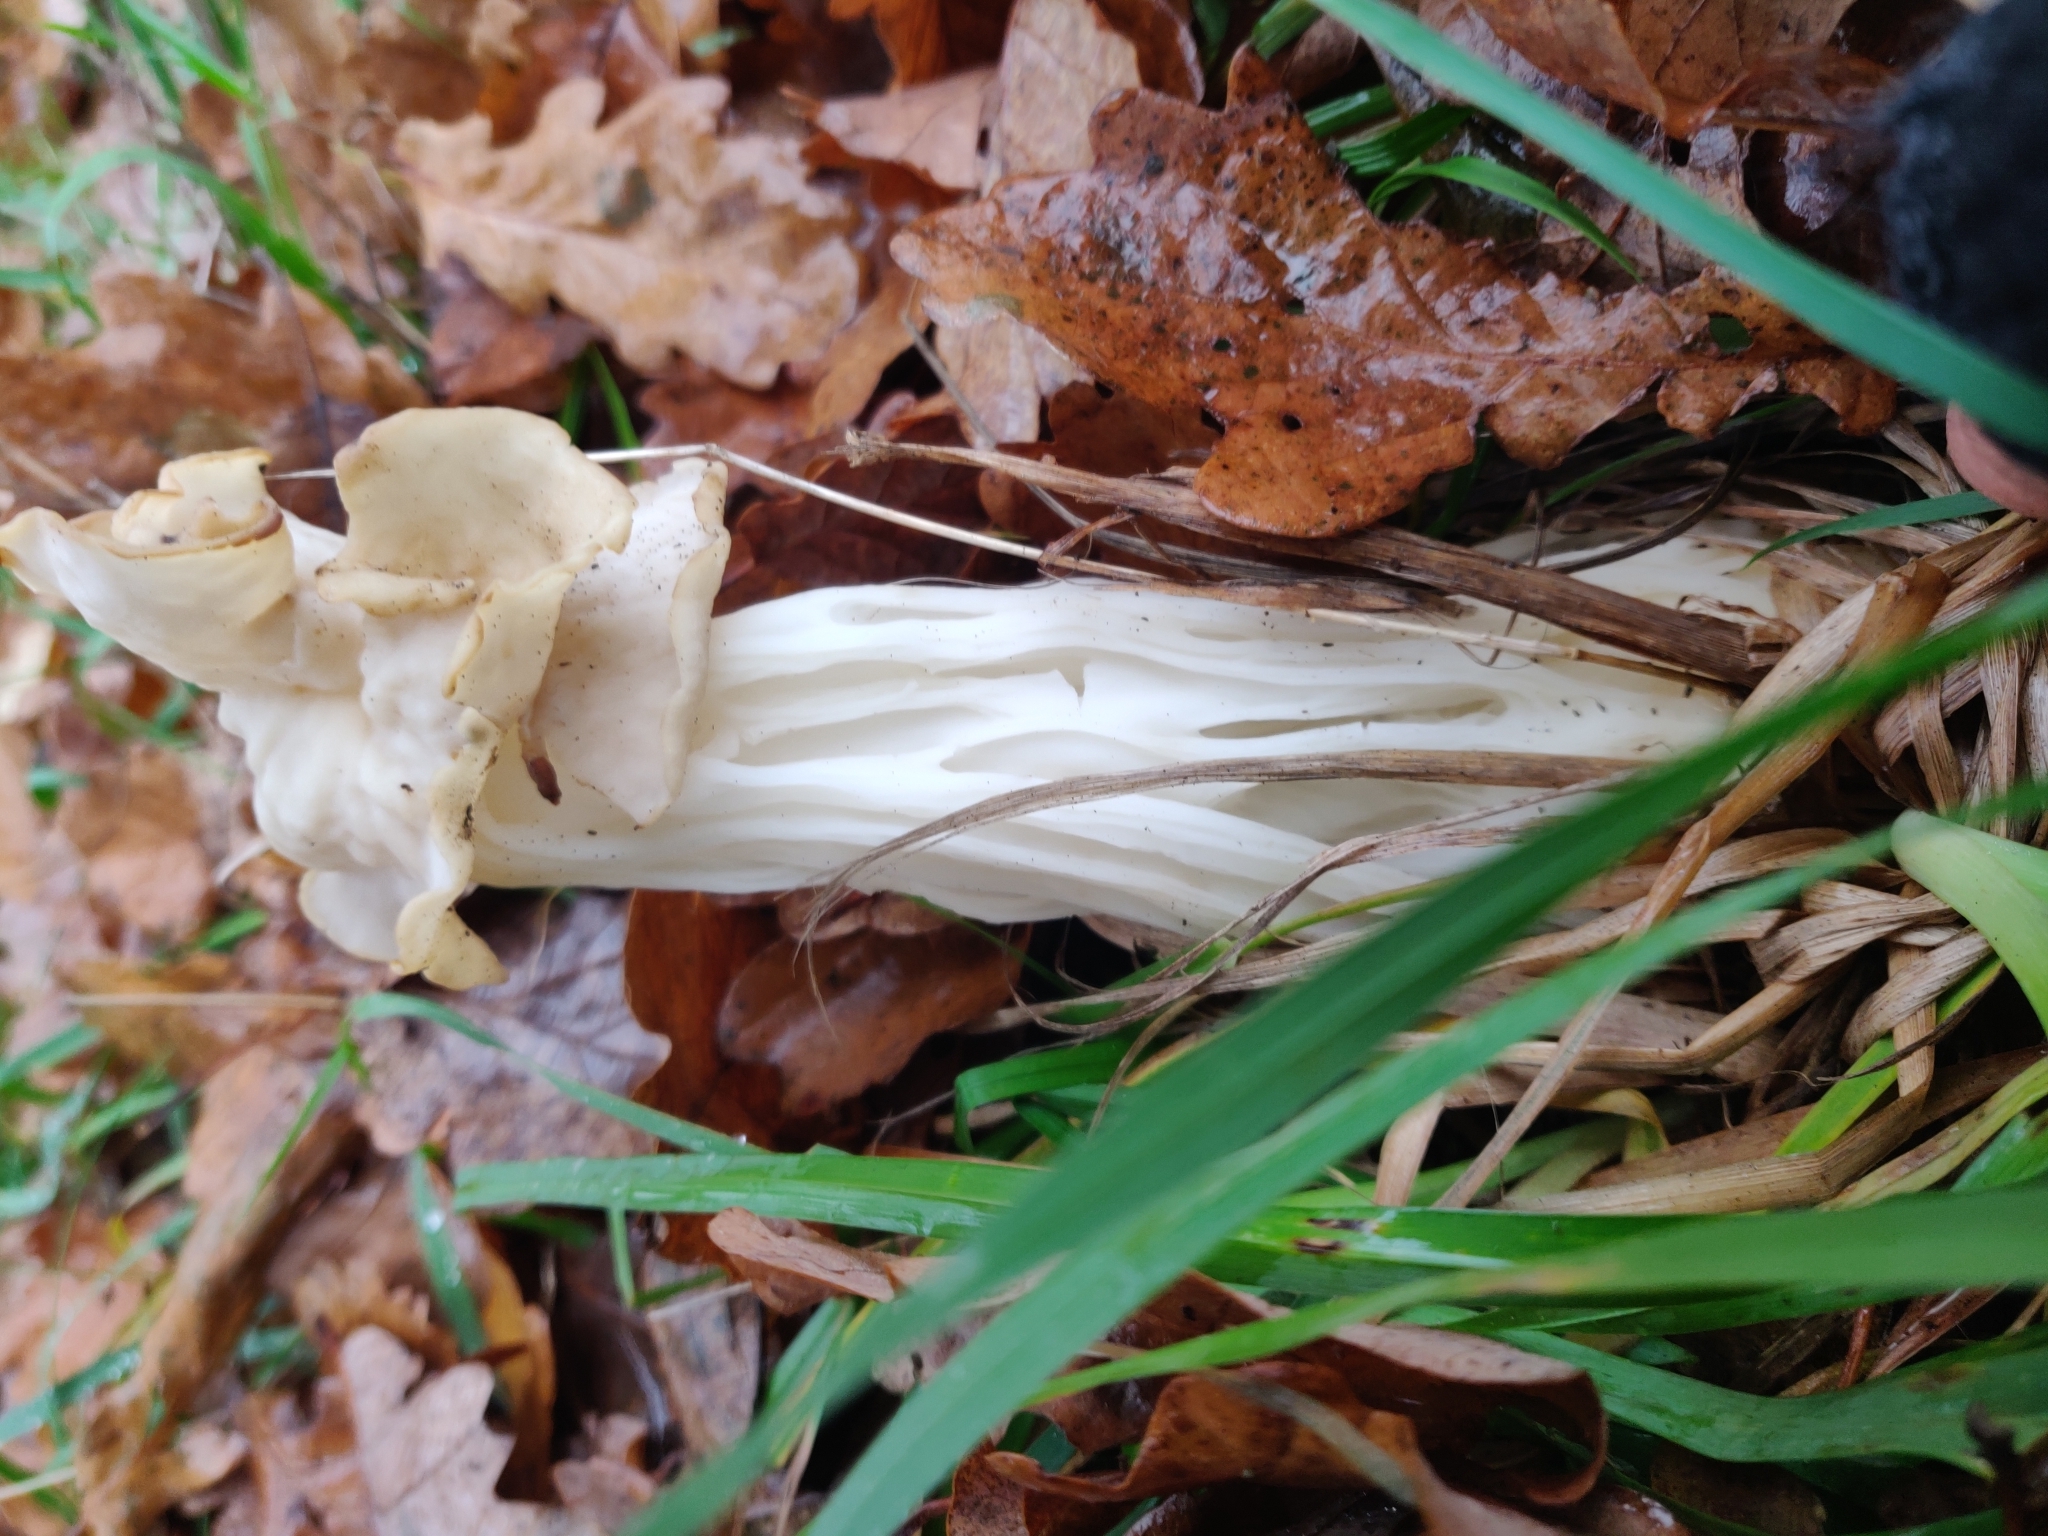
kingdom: Fungi
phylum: Ascomycota
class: Pezizomycetes
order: Pezizales
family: Helvellaceae
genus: Helvella
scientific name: Helvella crispa
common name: White saddle
